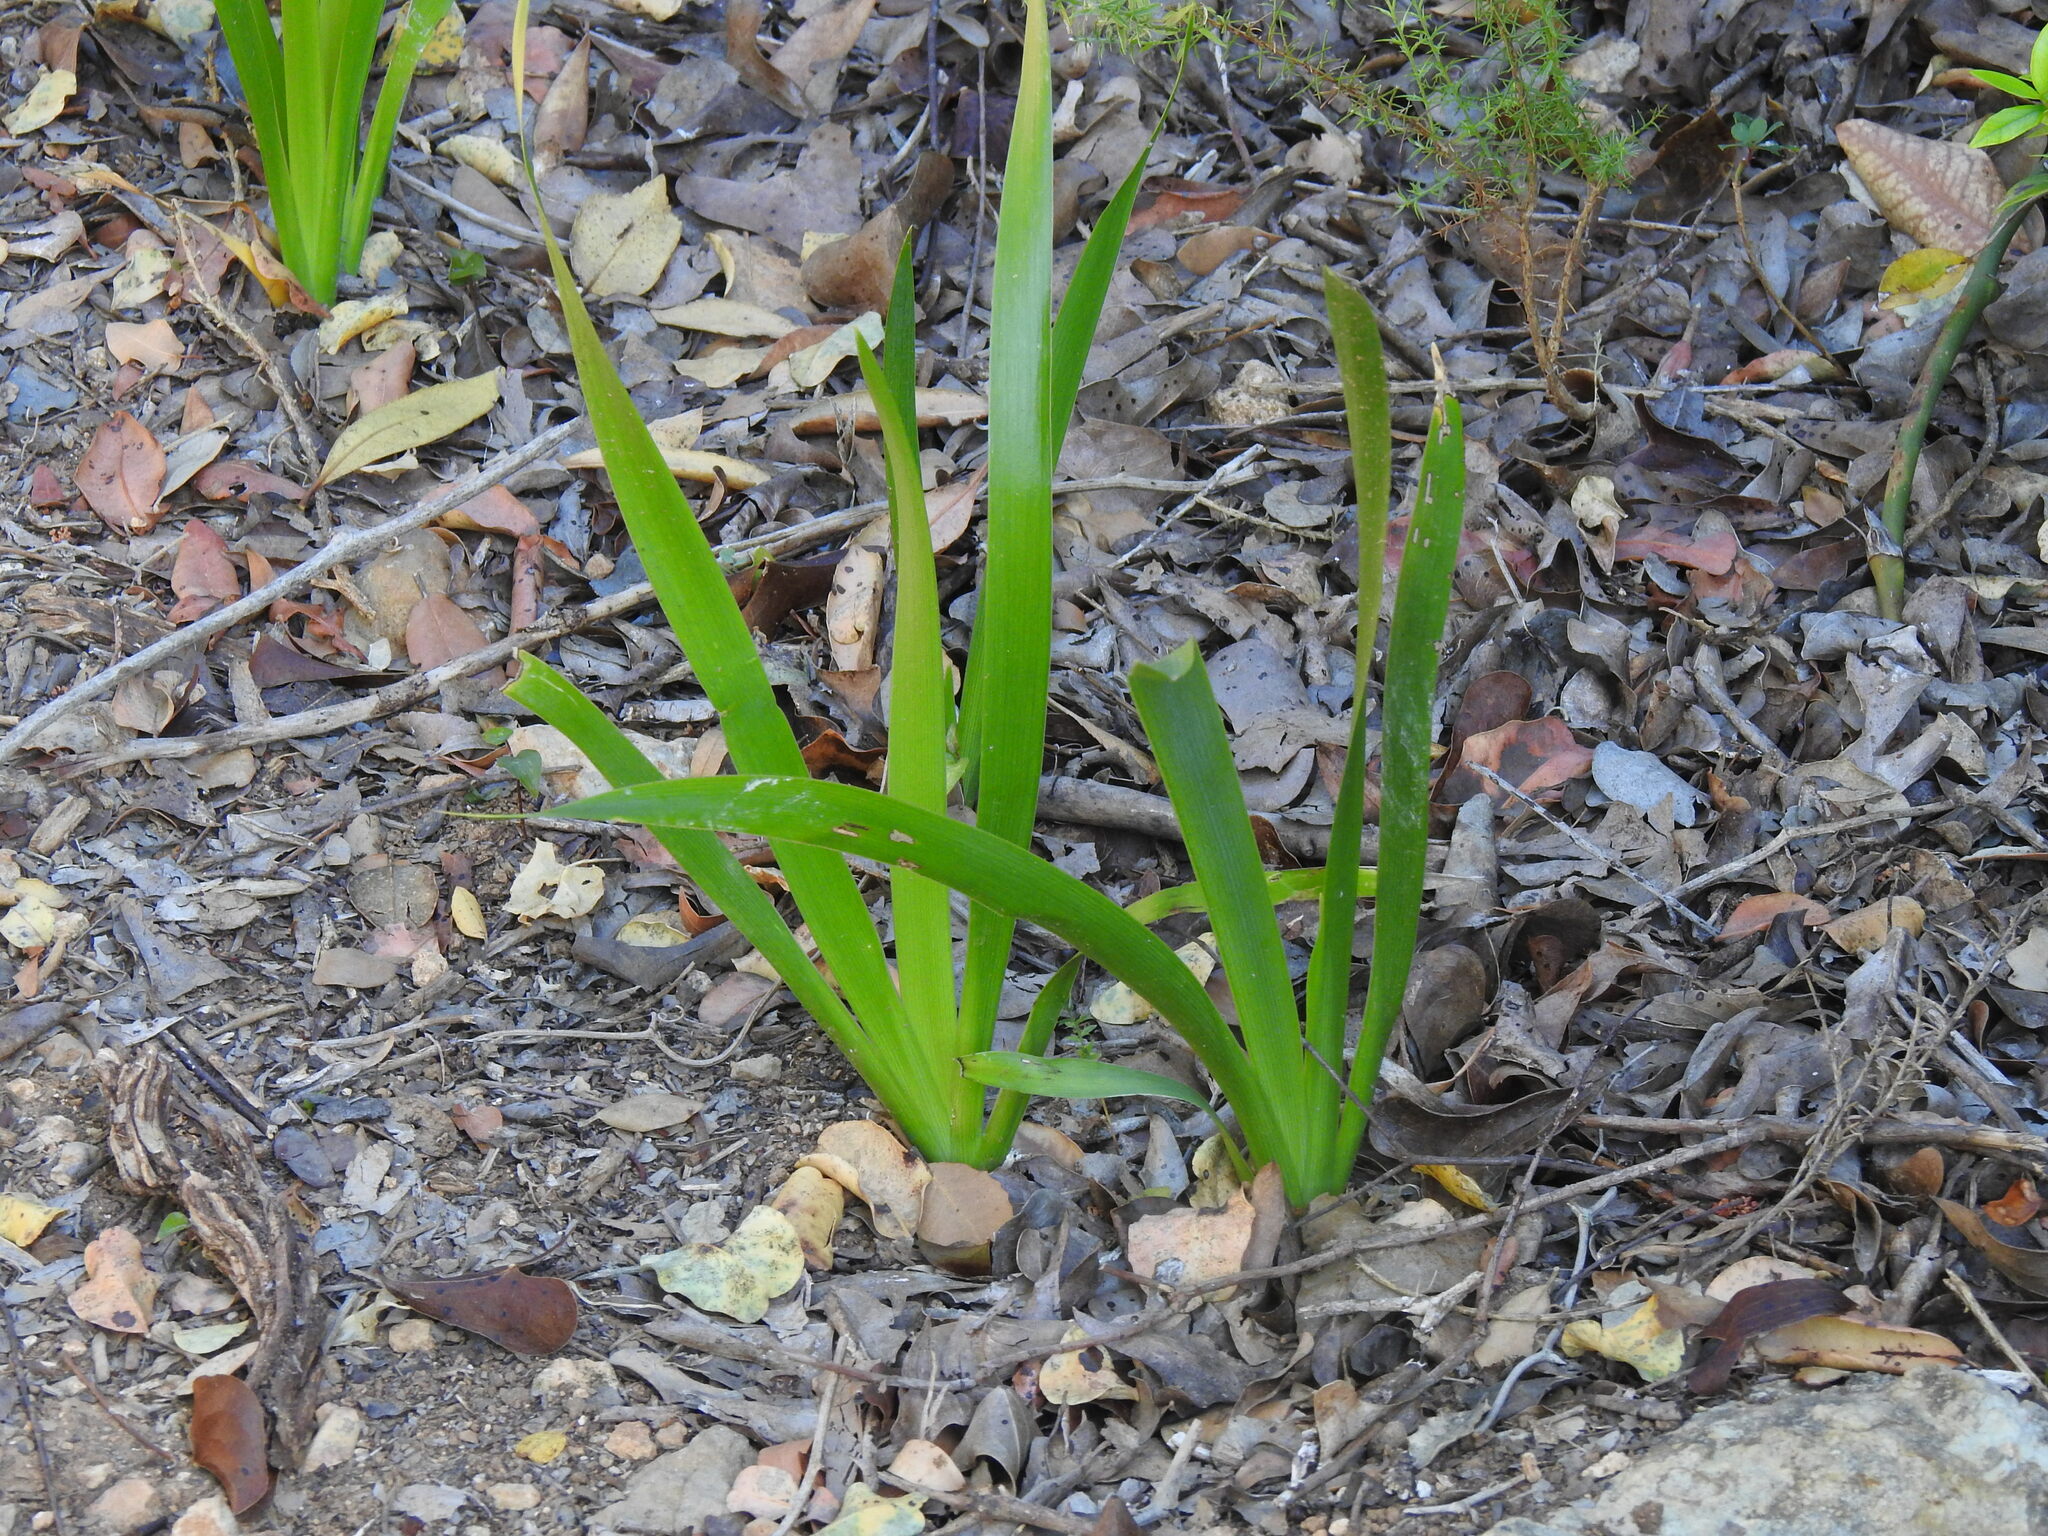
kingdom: Plantae
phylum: Tracheophyta
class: Liliopsida
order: Asparagales
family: Iridaceae
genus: Iris
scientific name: Iris foetidissima
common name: Stinking iris
